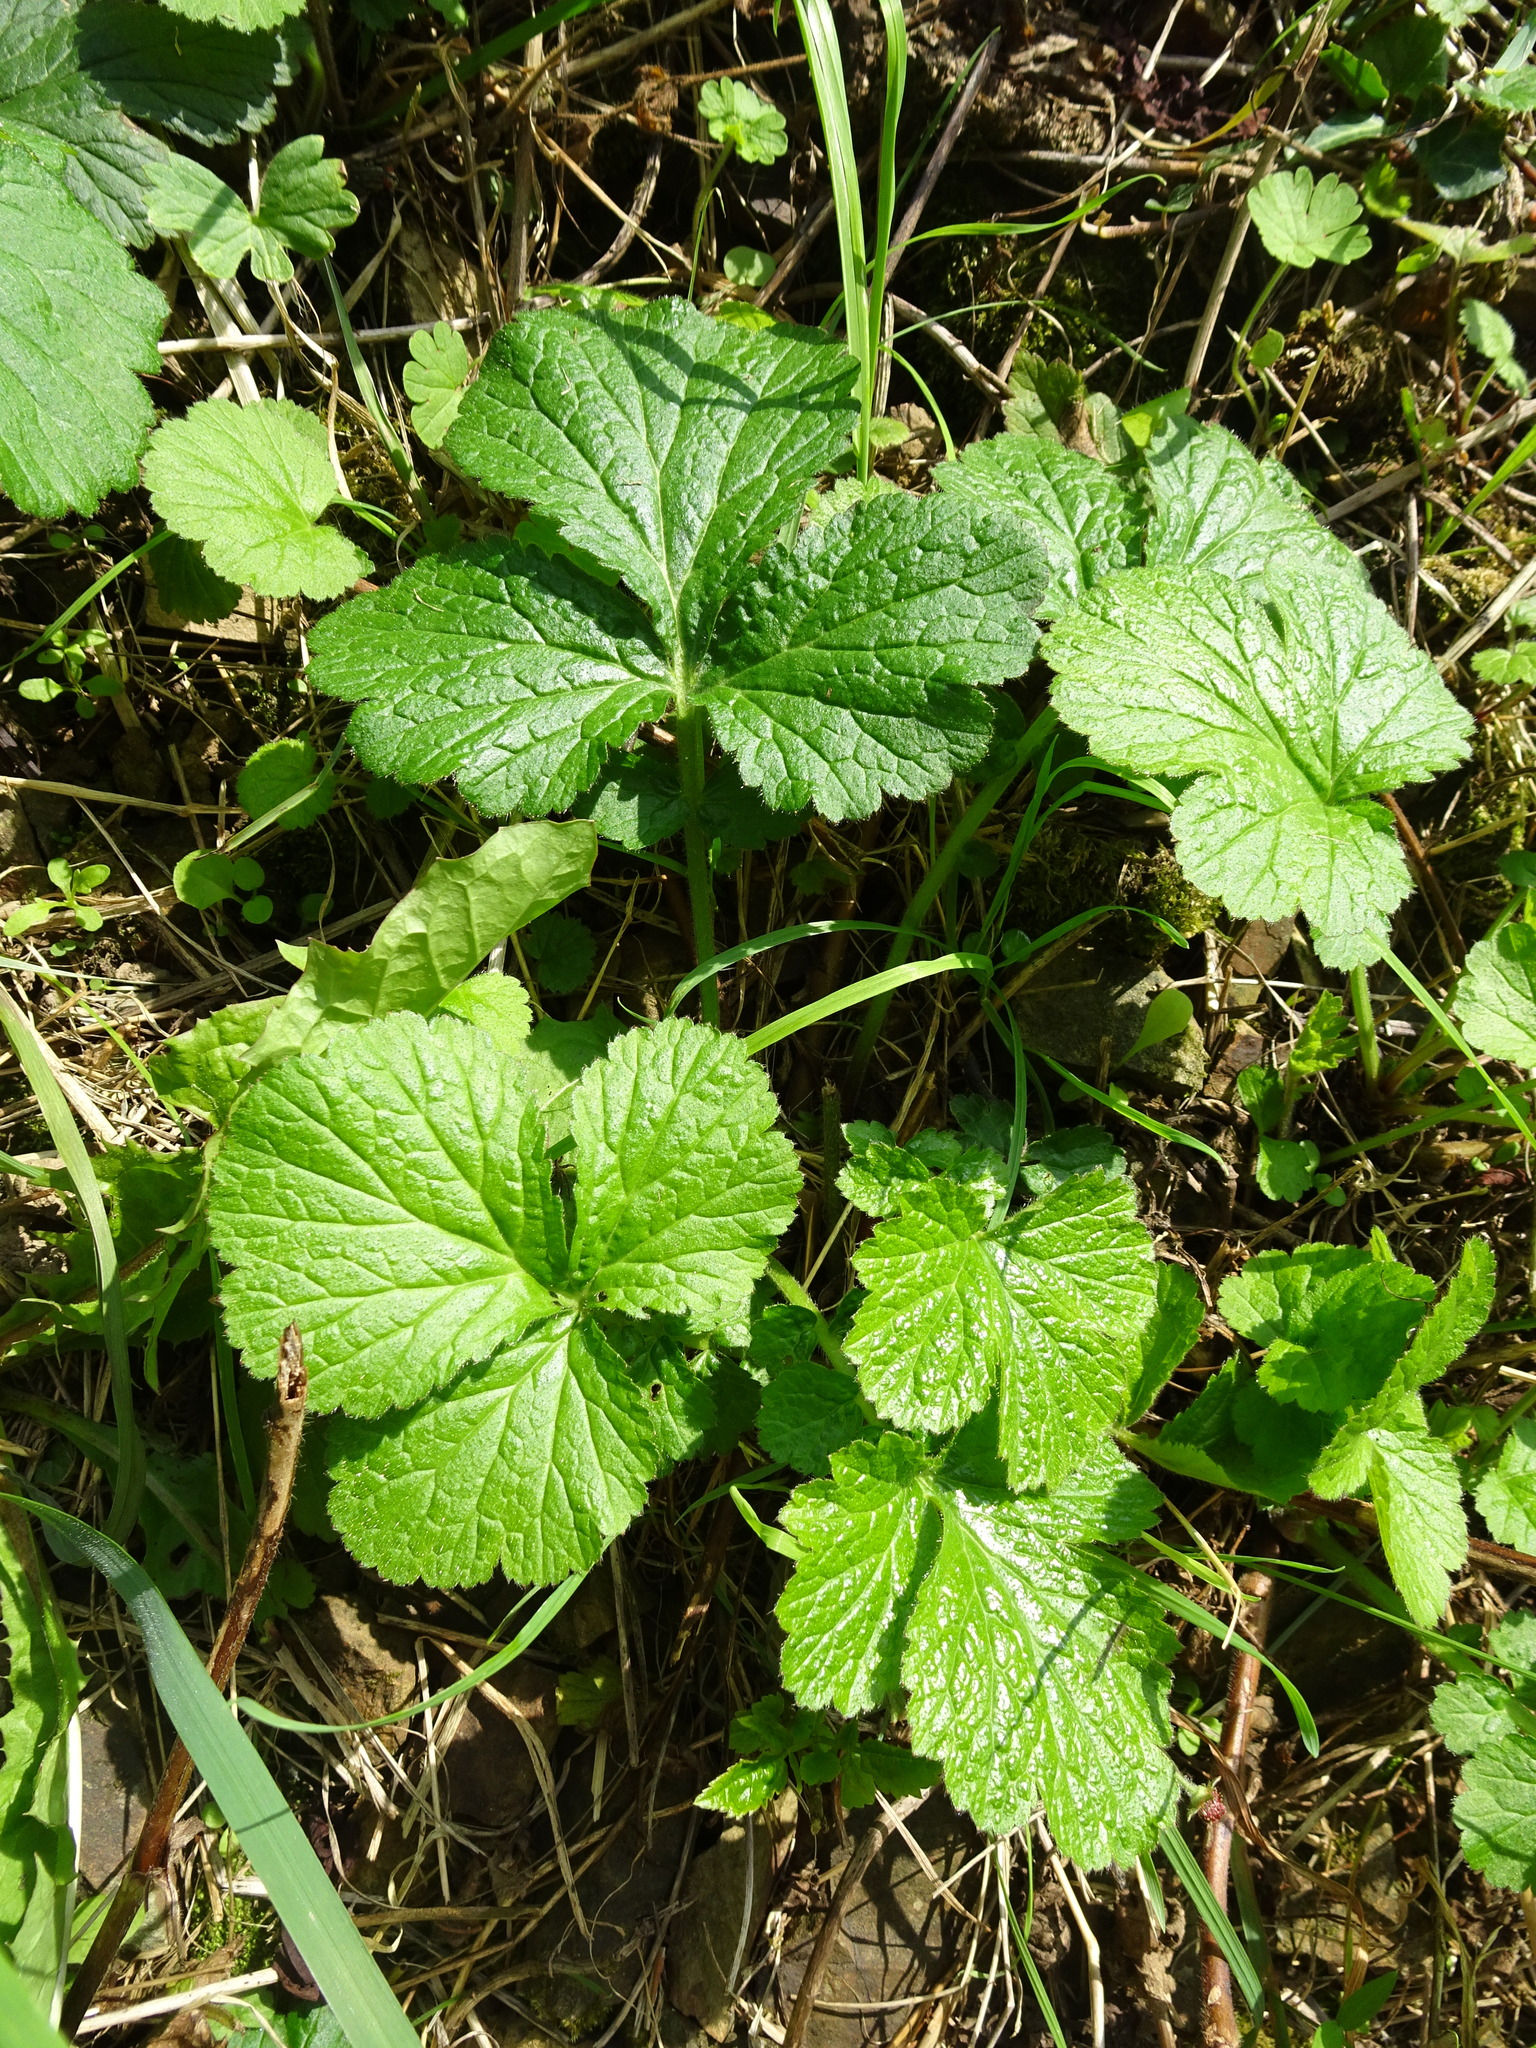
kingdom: Plantae
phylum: Tracheophyta
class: Magnoliopsida
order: Rosales
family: Rosaceae
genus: Geum
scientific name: Geum urbanum
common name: Wood avens
